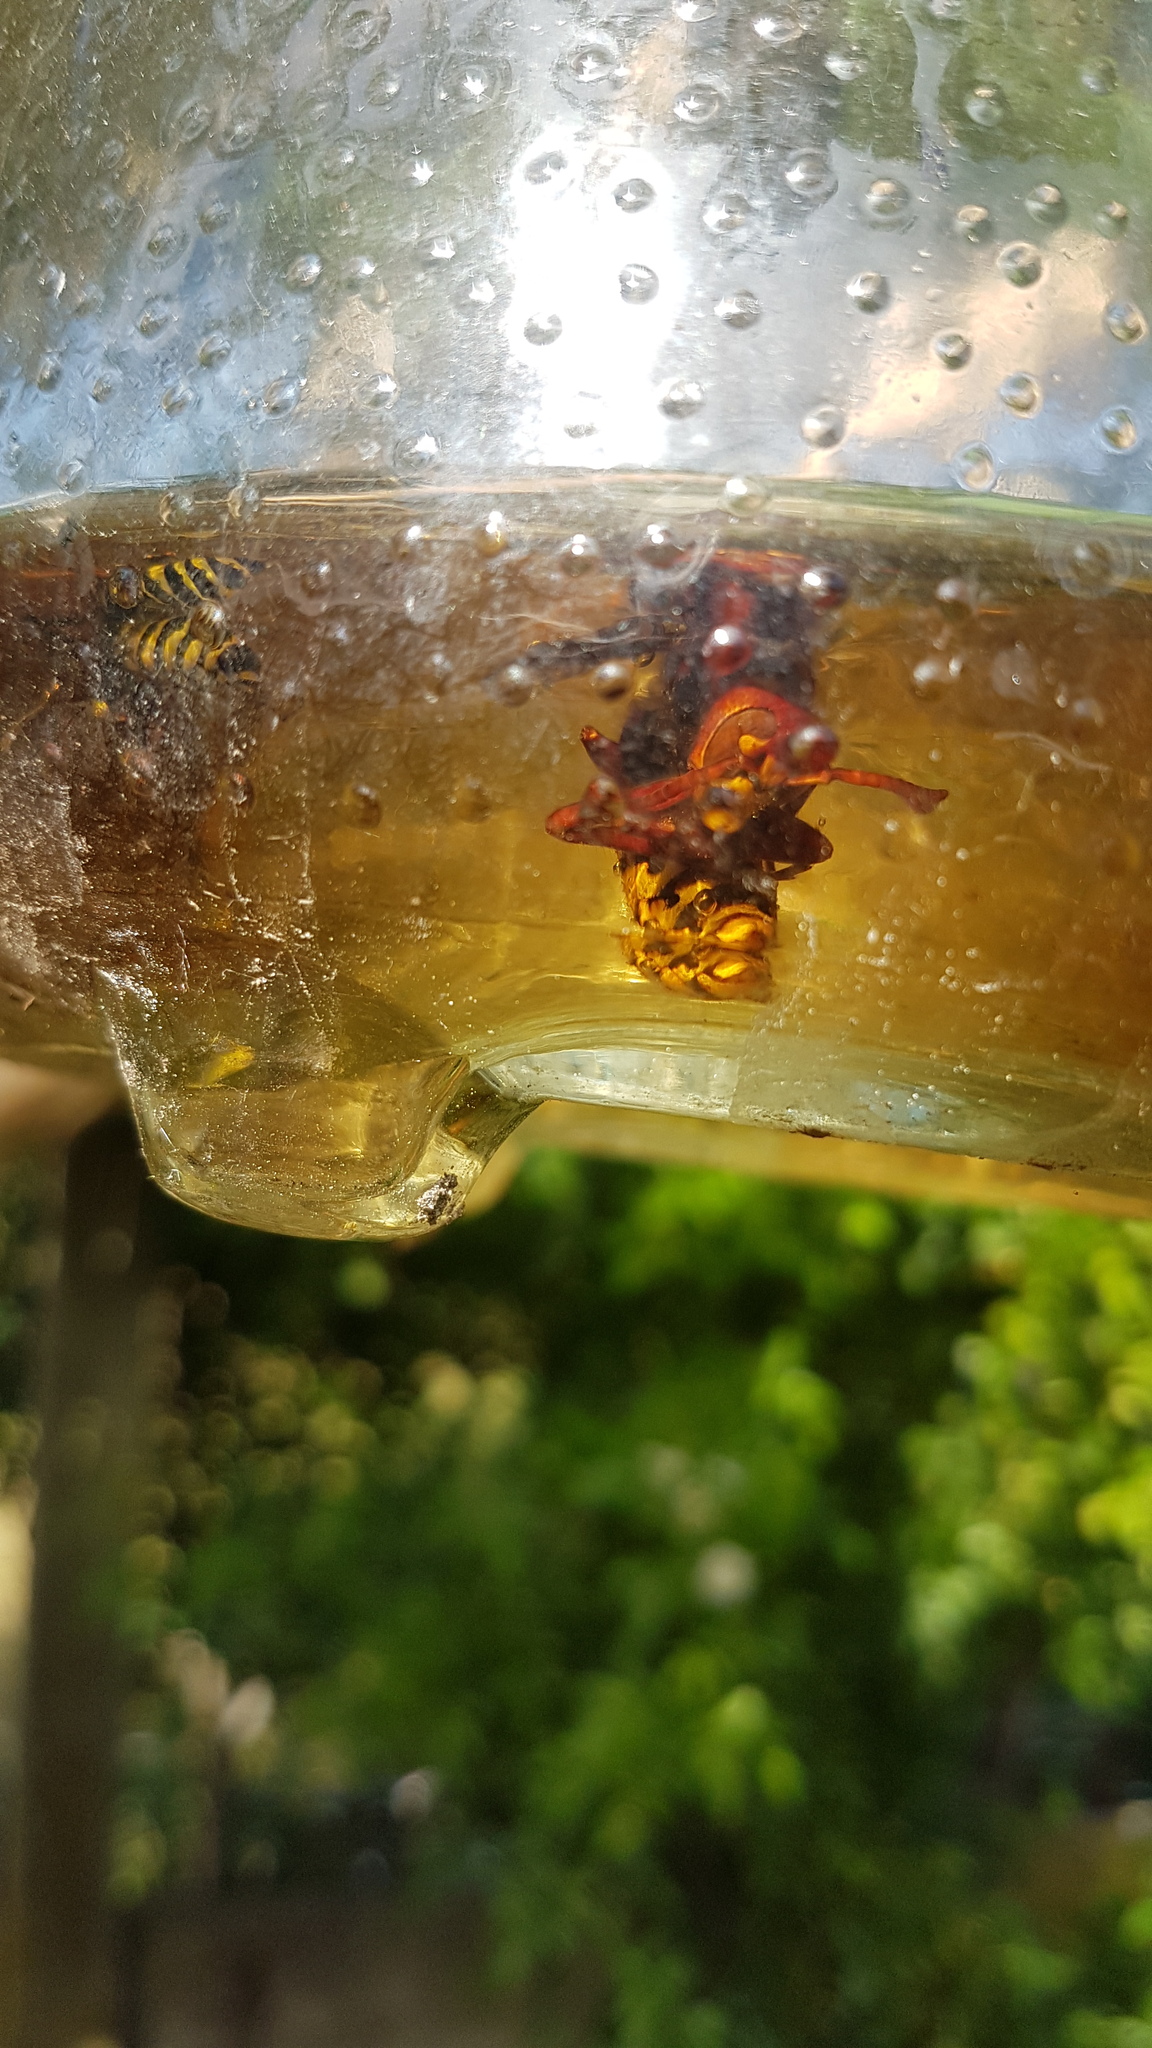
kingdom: Animalia
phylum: Arthropoda
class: Insecta
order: Hymenoptera
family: Vespidae
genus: Vespa
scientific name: Vespa crabro
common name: Hornet
